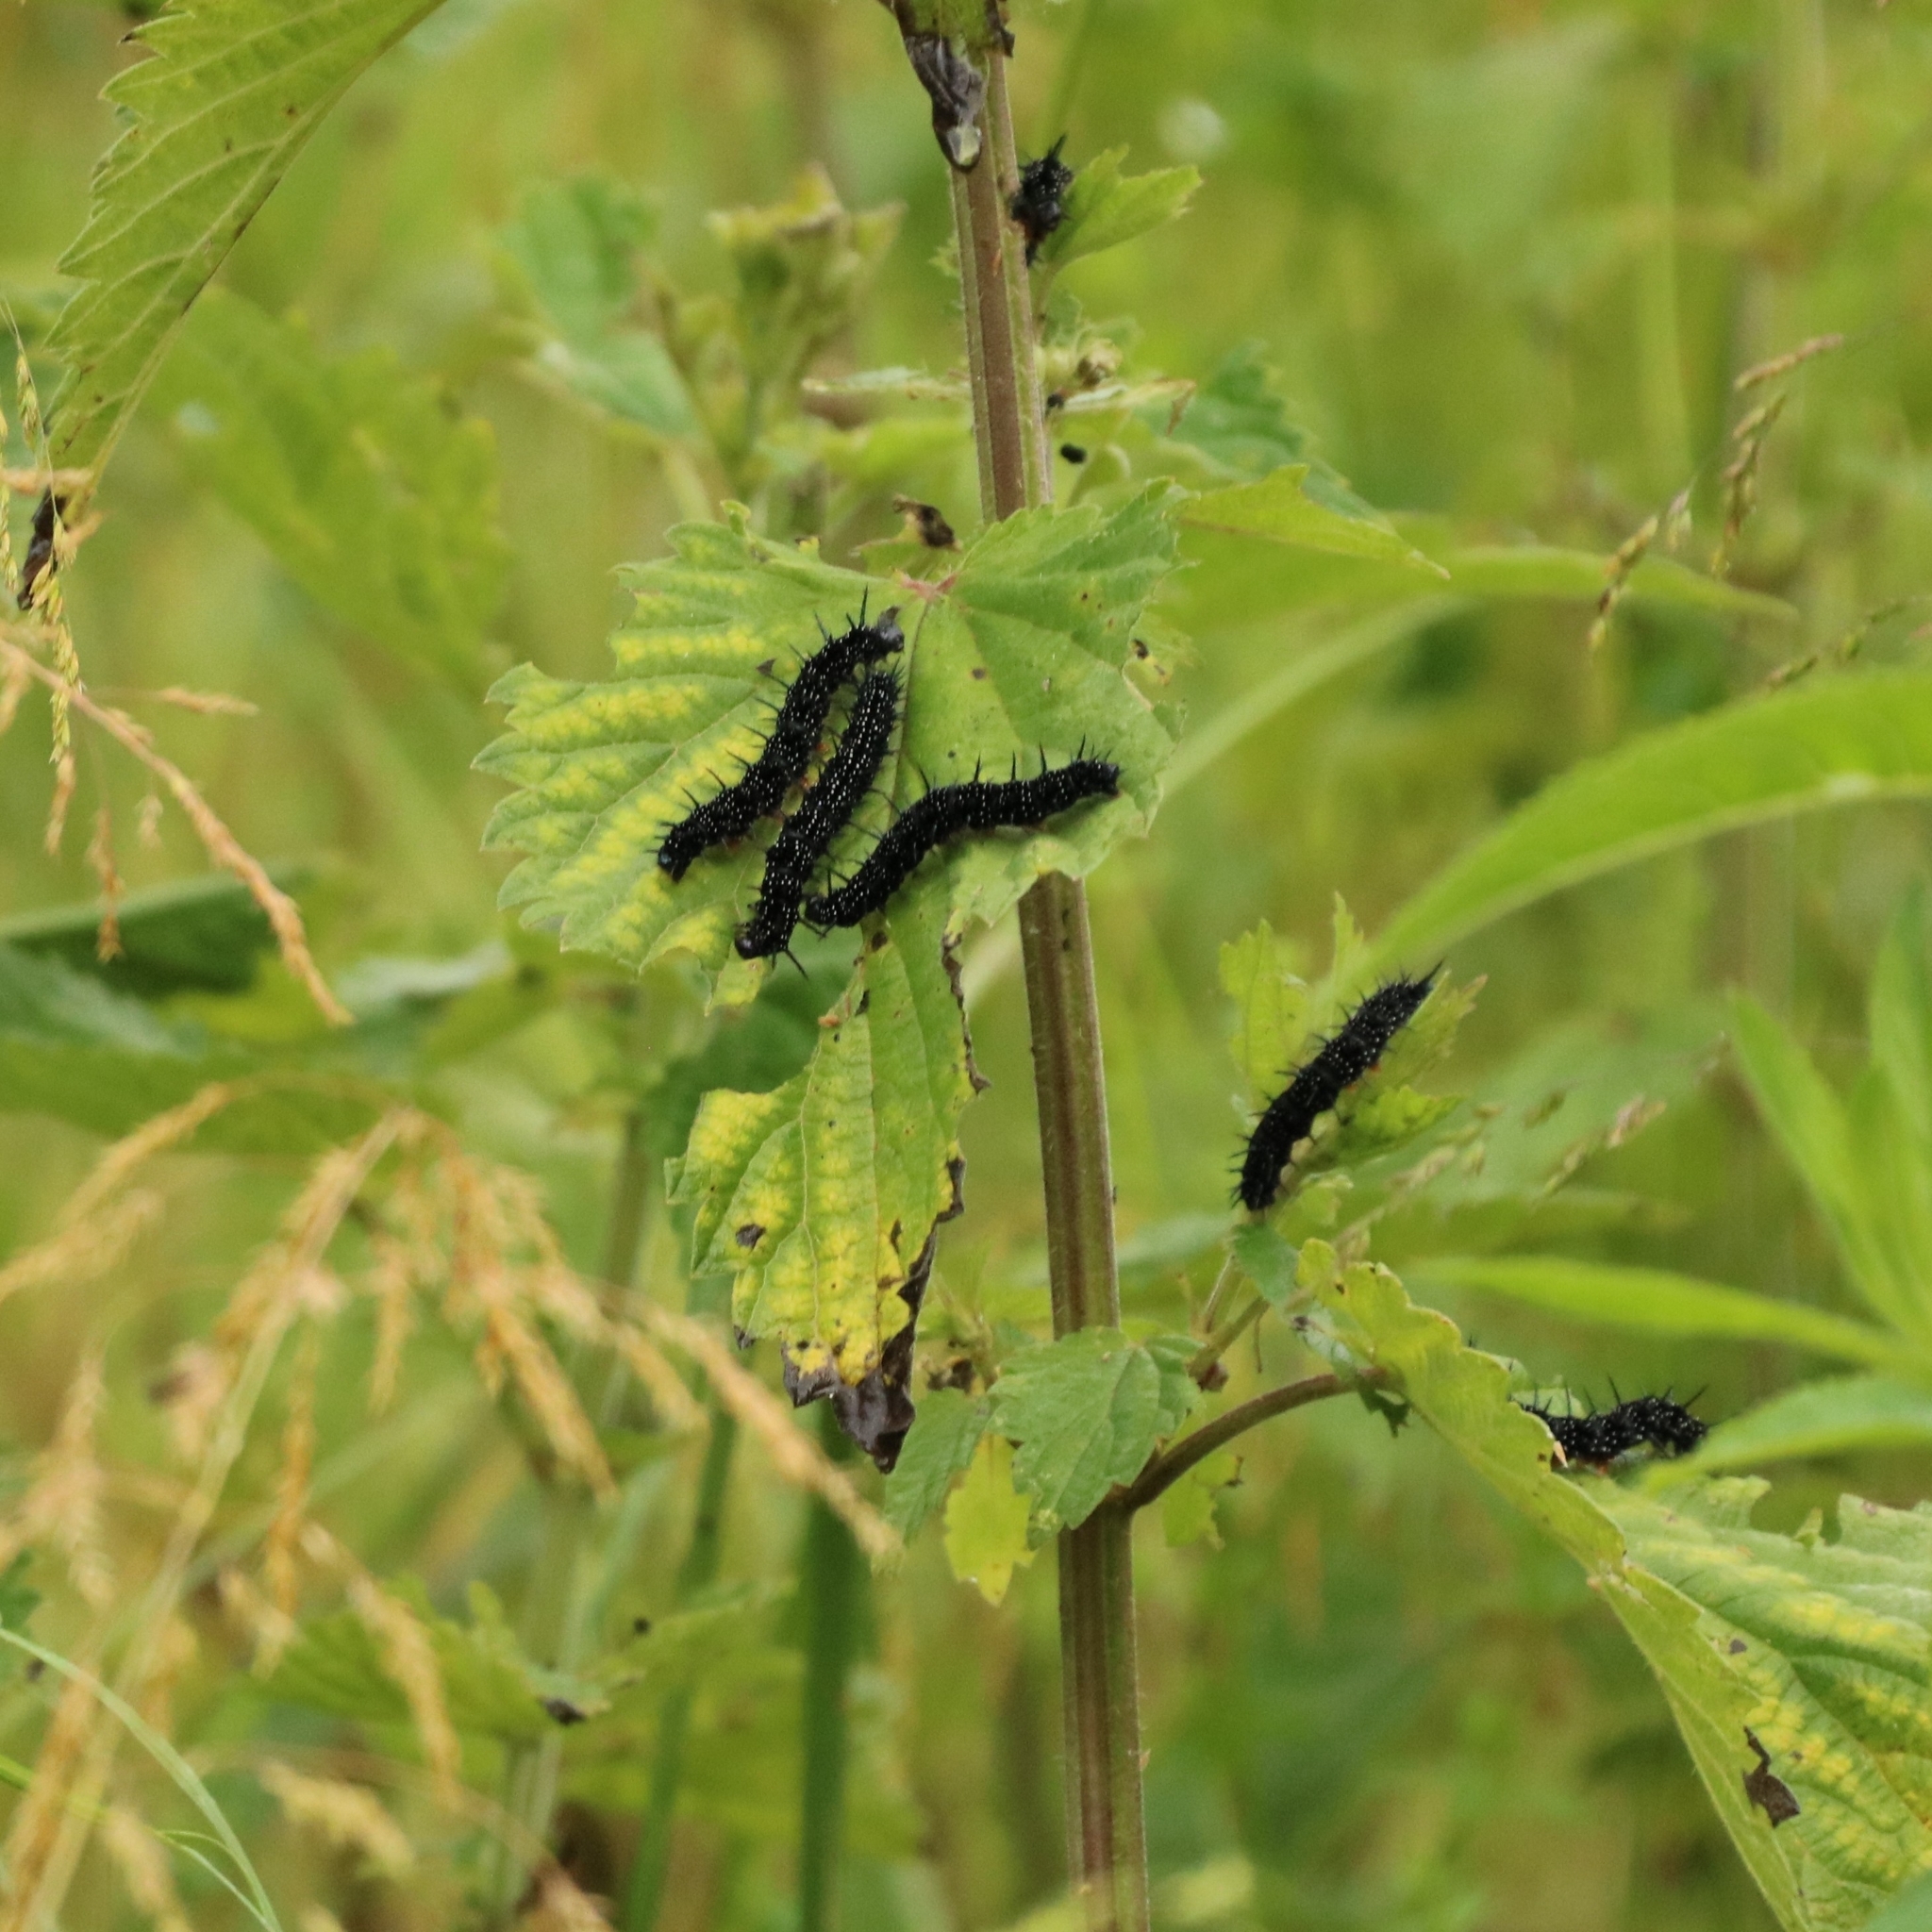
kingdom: Animalia
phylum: Arthropoda
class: Insecta
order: Lepidoptera
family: Nymphalidae
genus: Aglais
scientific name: Aglais io
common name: Peacock
